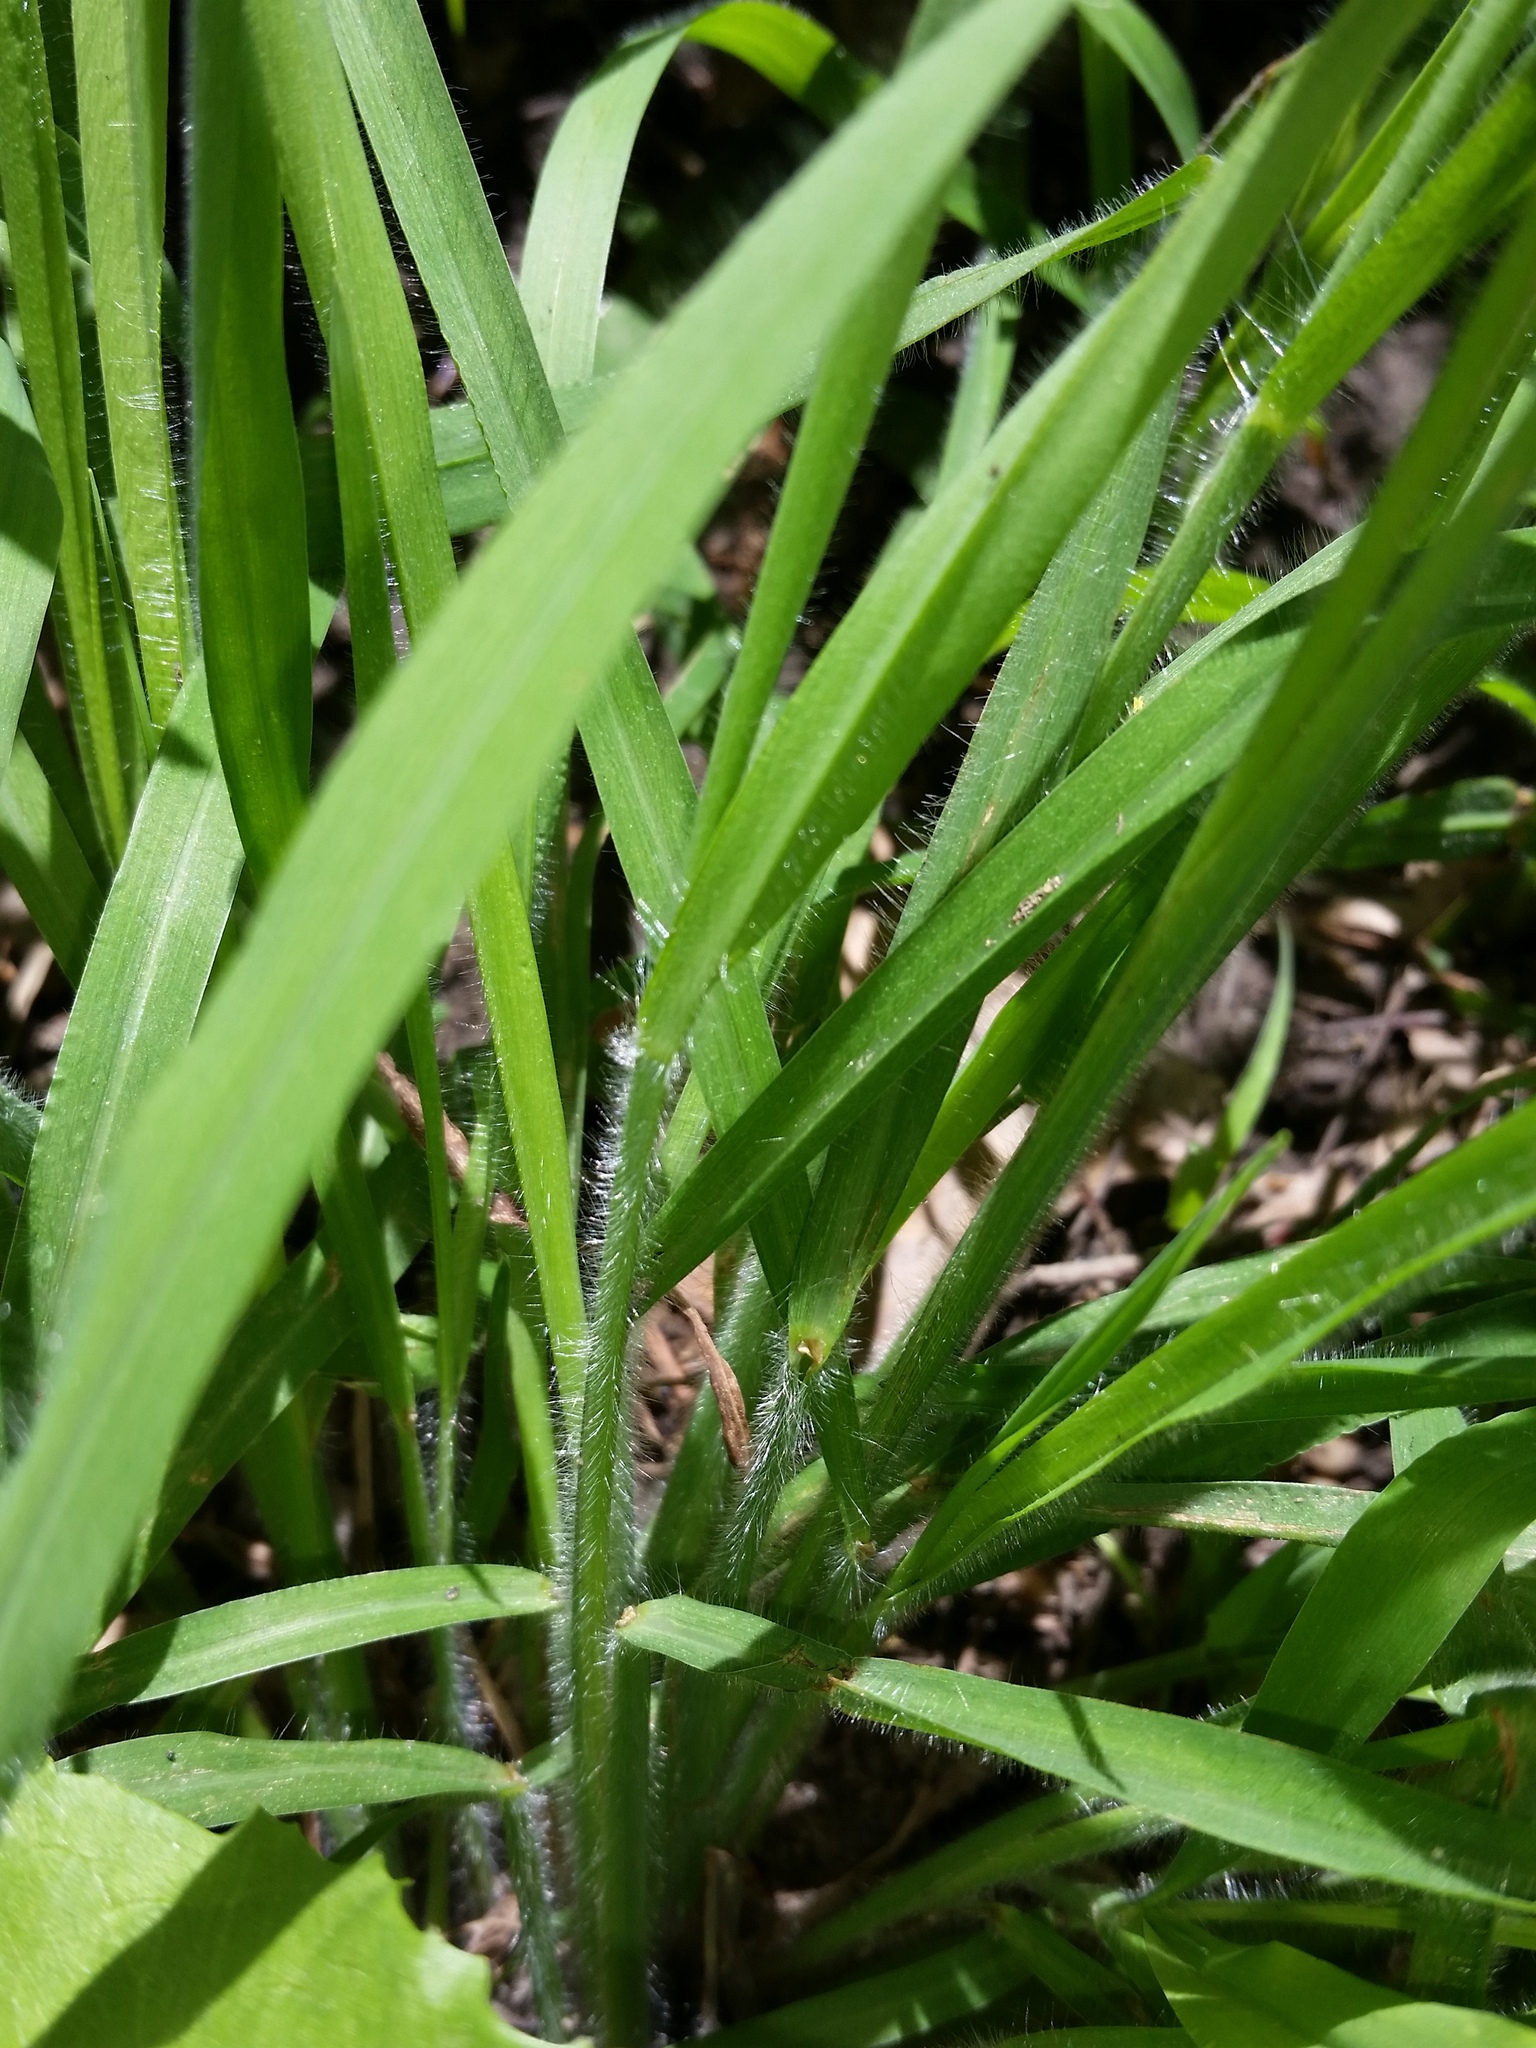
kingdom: Plantae
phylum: Tracheophyta
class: Liliopsida
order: Poales
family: Poaceae
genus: Paspalum
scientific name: Paspalum laeve
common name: Field paspalum
